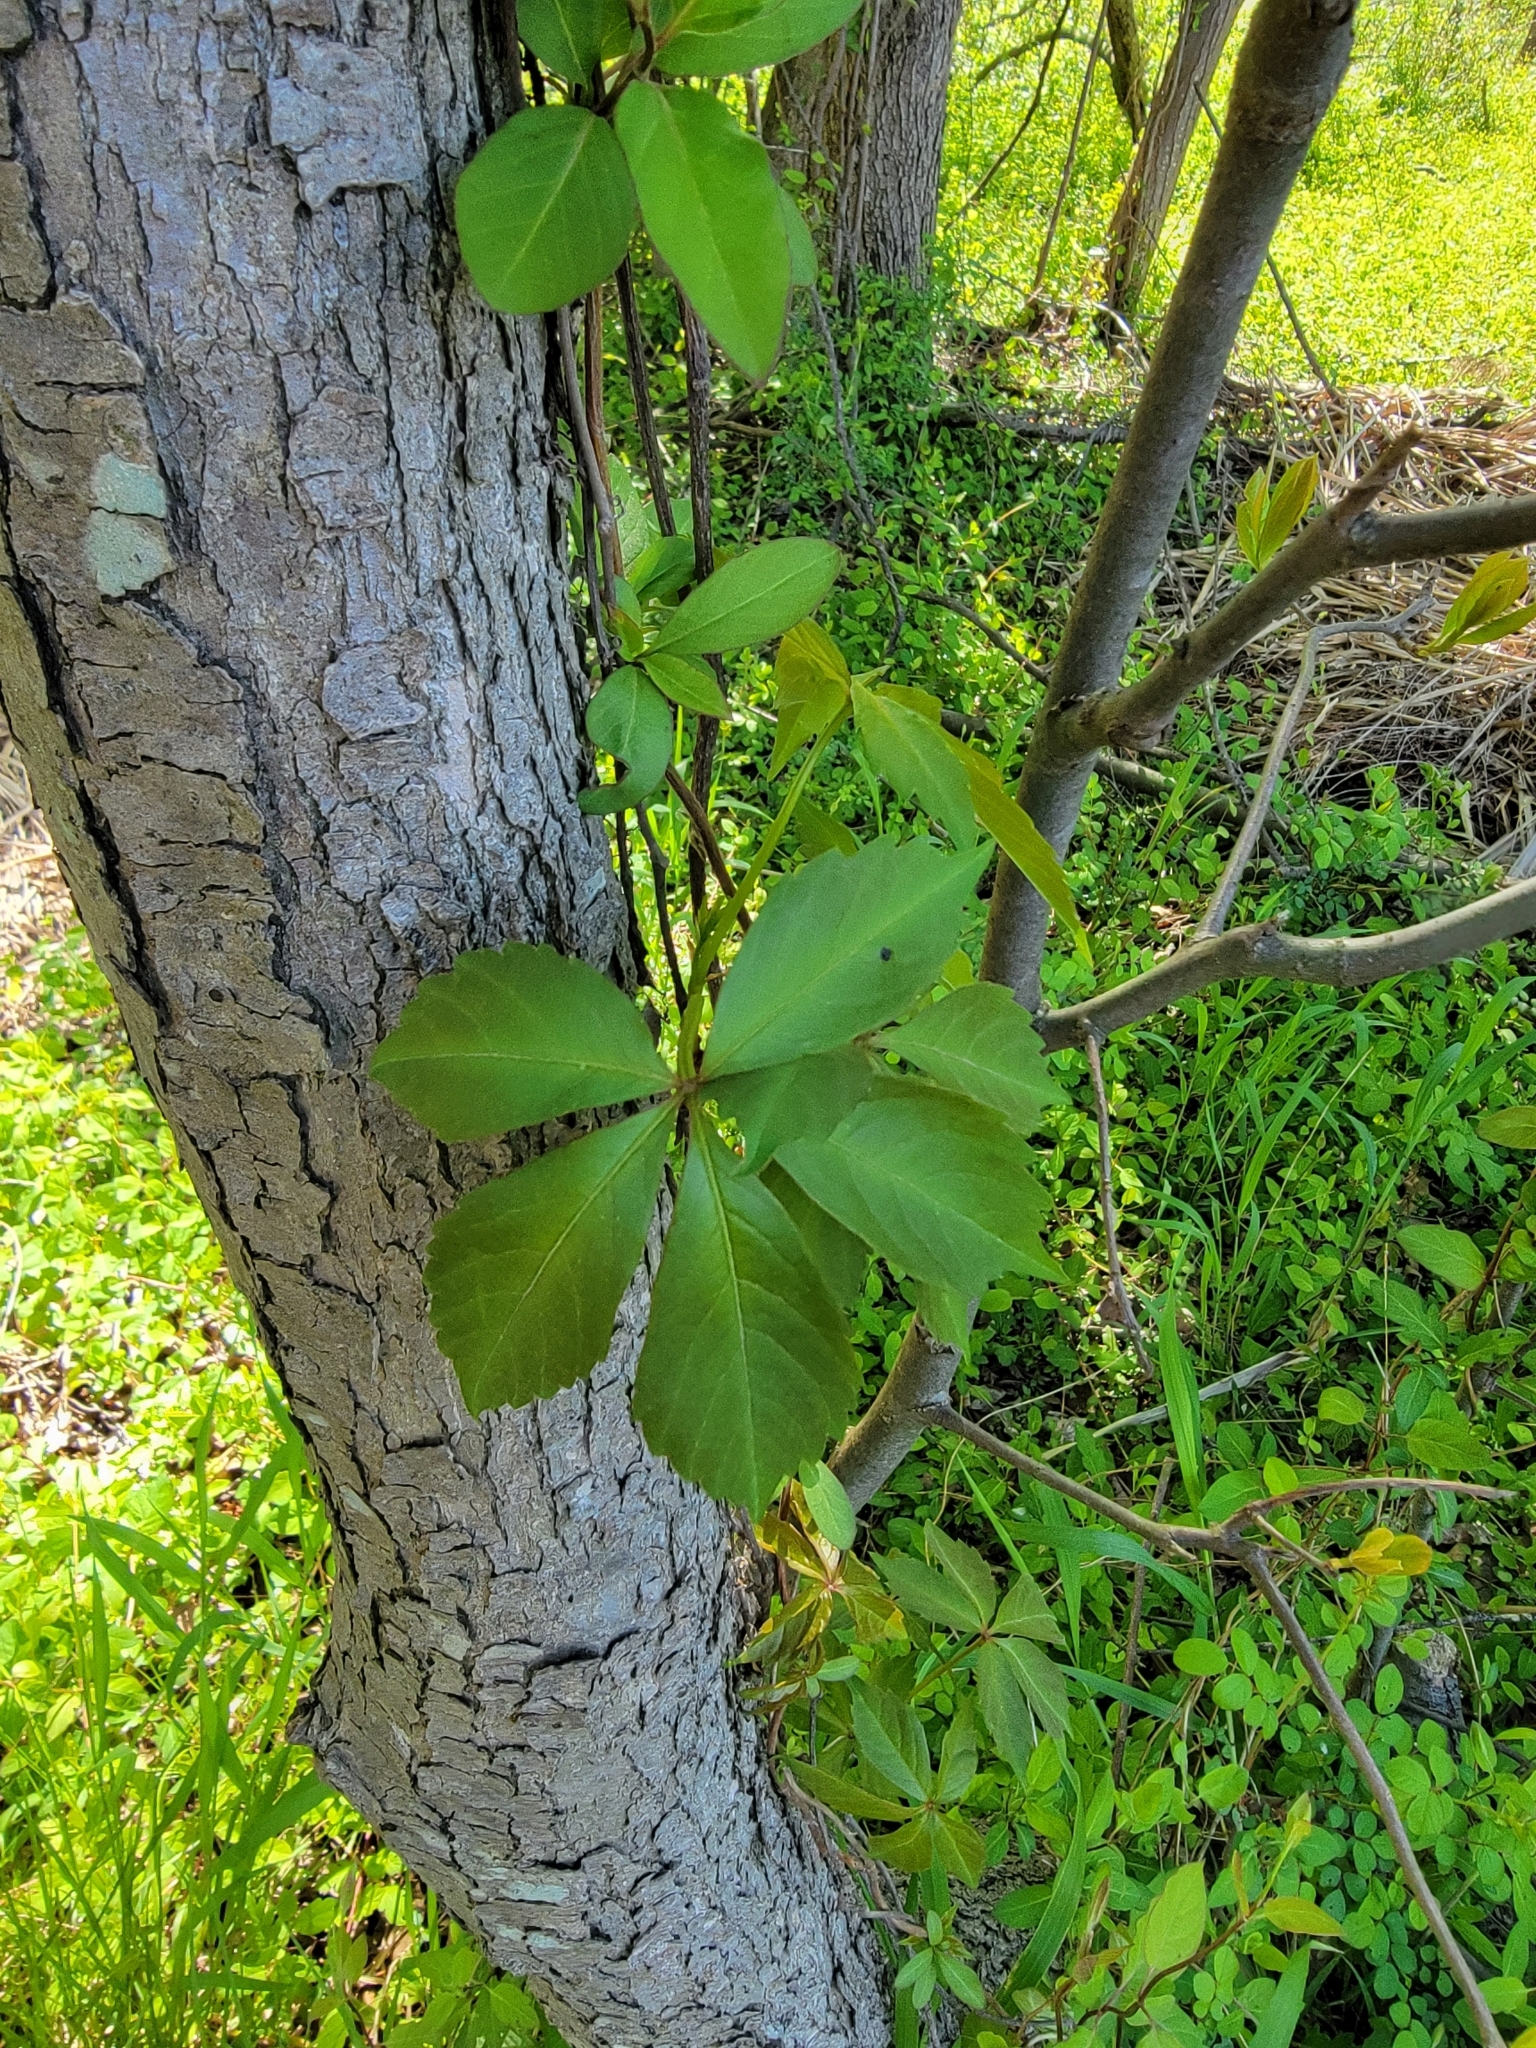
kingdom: Plantae
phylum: Tracheophyta
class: Magnoliopsida
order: Vitales
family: Vitaceae
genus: Parthenocissus
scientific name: Parthenocissus quinquefolia
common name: Virginia-creeper
